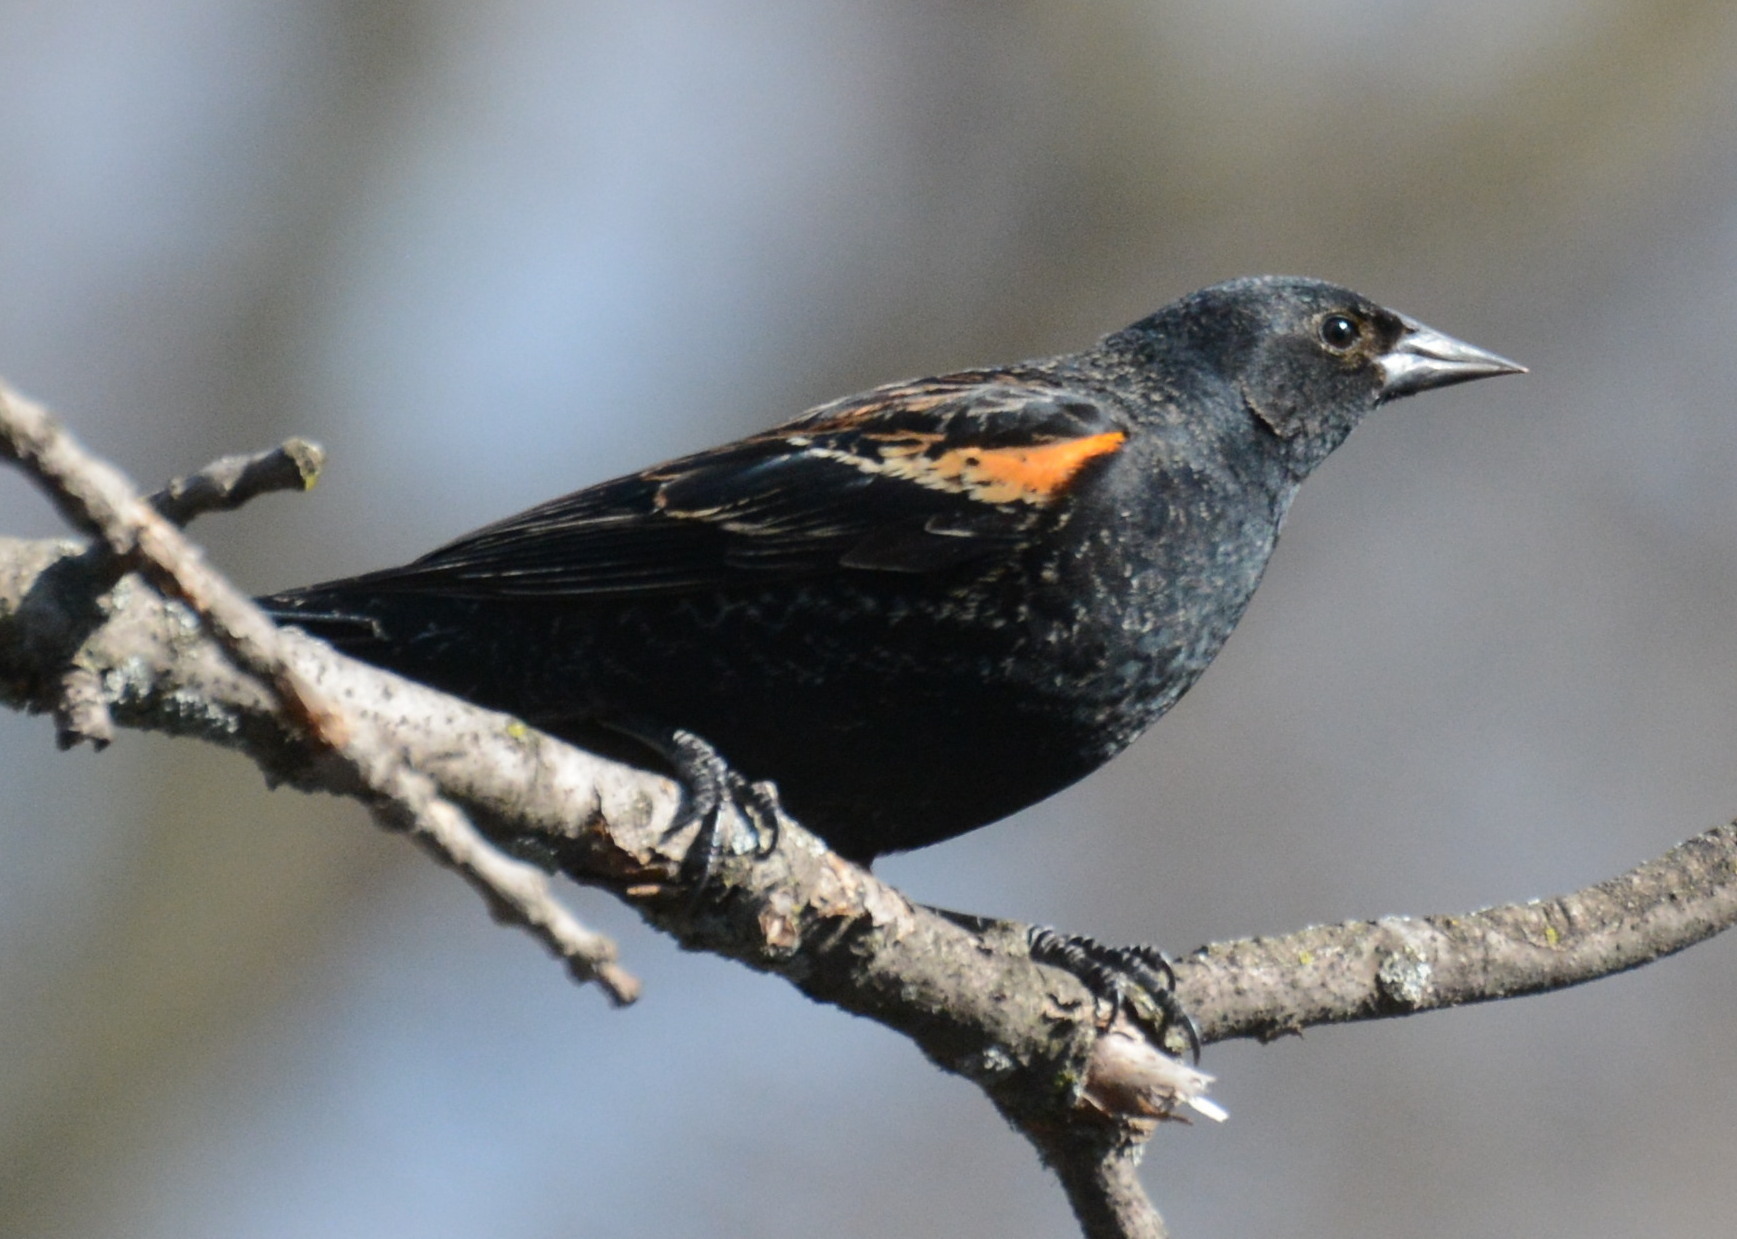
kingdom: Animalia
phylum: Chordata
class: Aves
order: Passeriformes
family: Icteridae
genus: Agelaius
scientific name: Agelaius phoeniceus
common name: Red-winged blackbird
